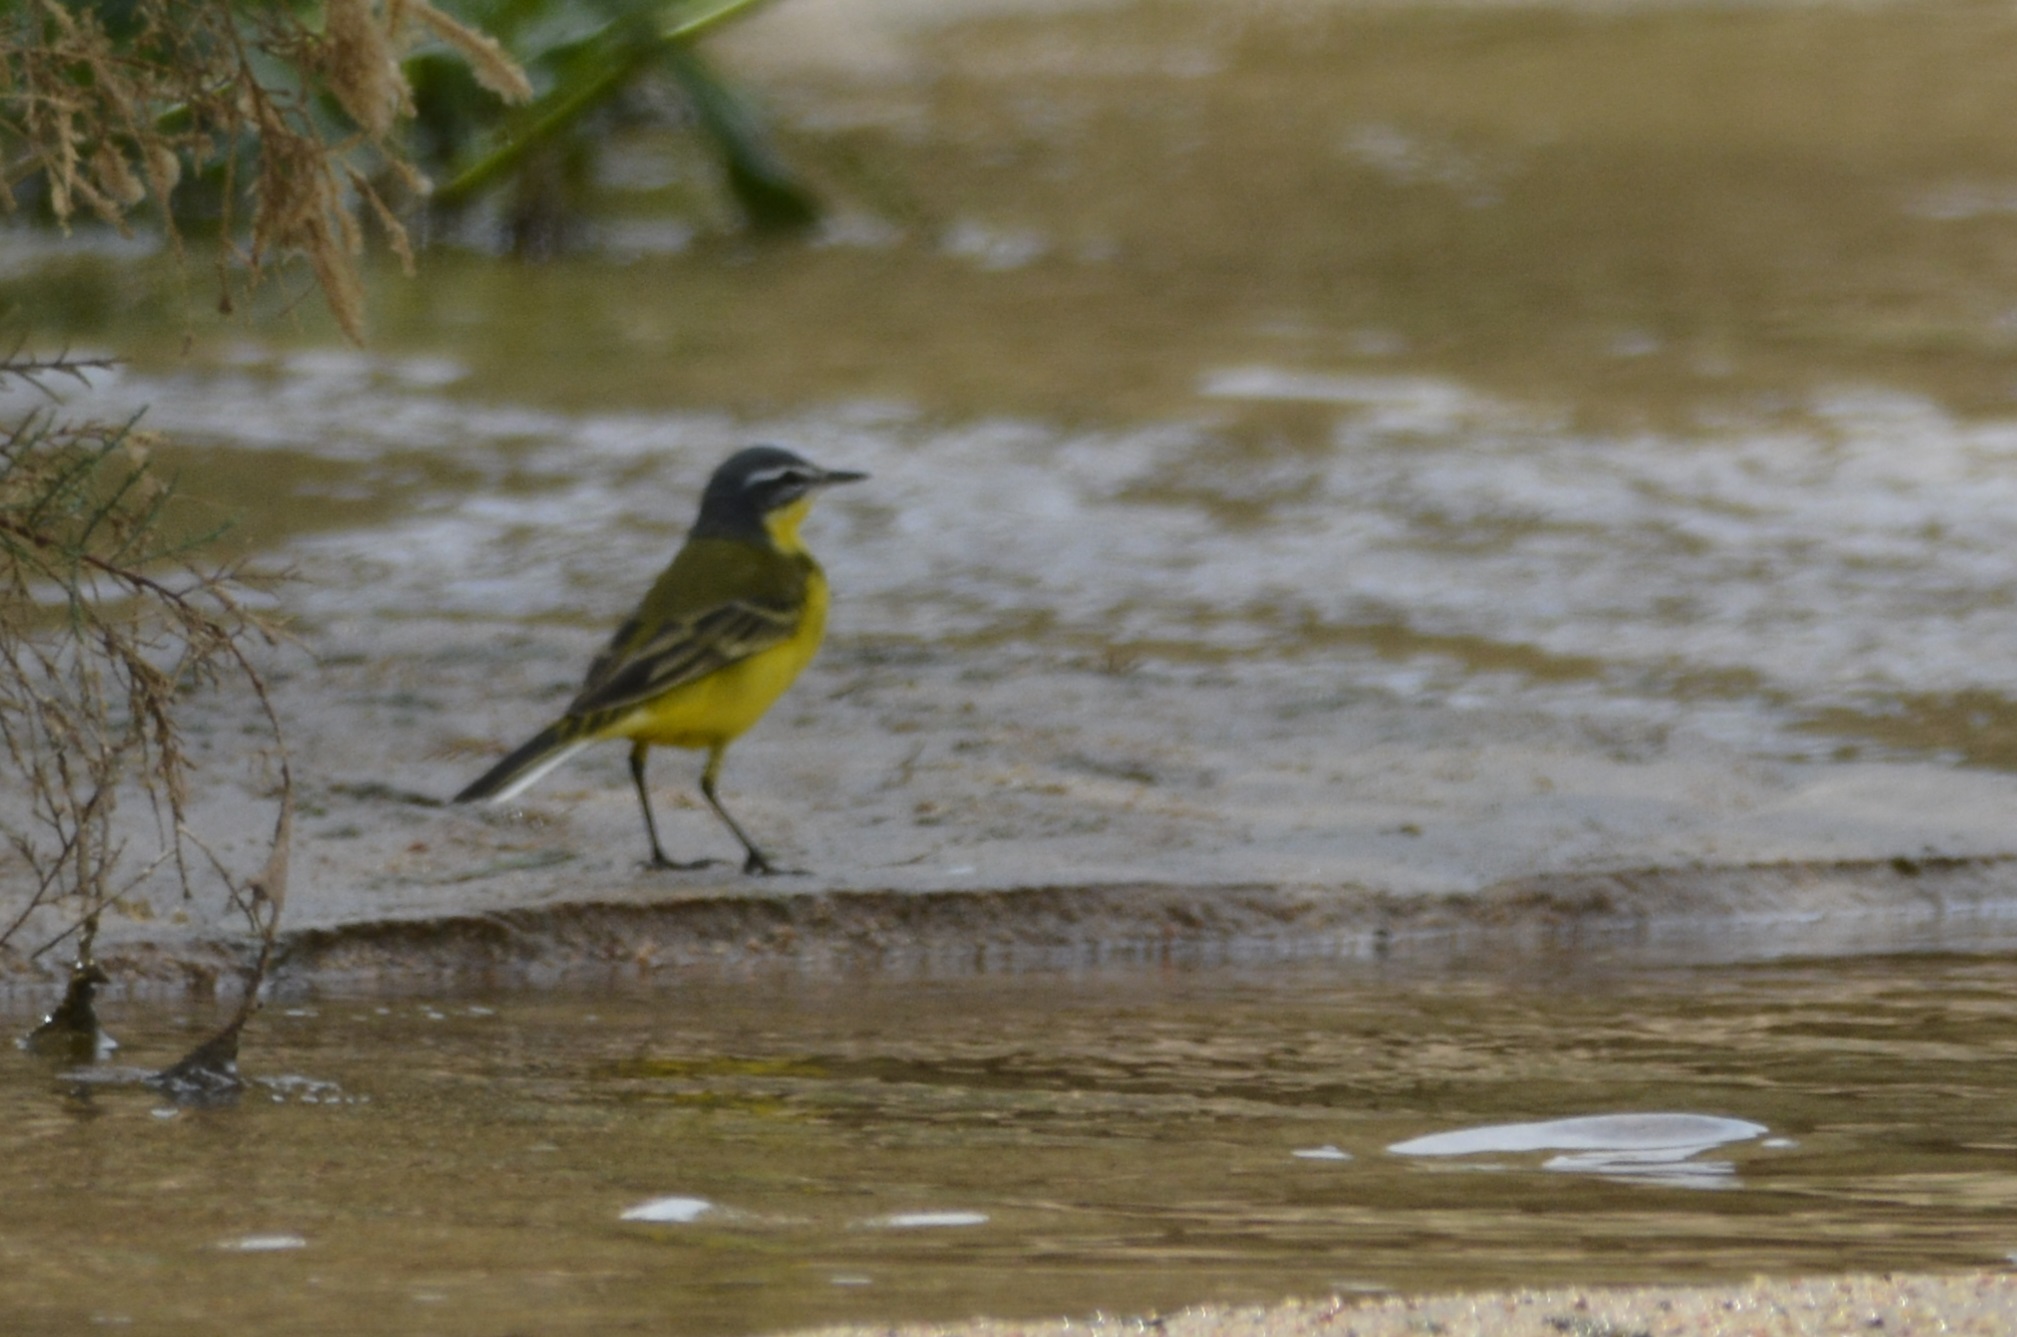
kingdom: Animalia
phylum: Chordata
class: Aves
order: Passeriformes
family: Motacillidae
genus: Motacilla
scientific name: Motacilla flava
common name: Western yellow wagtail
